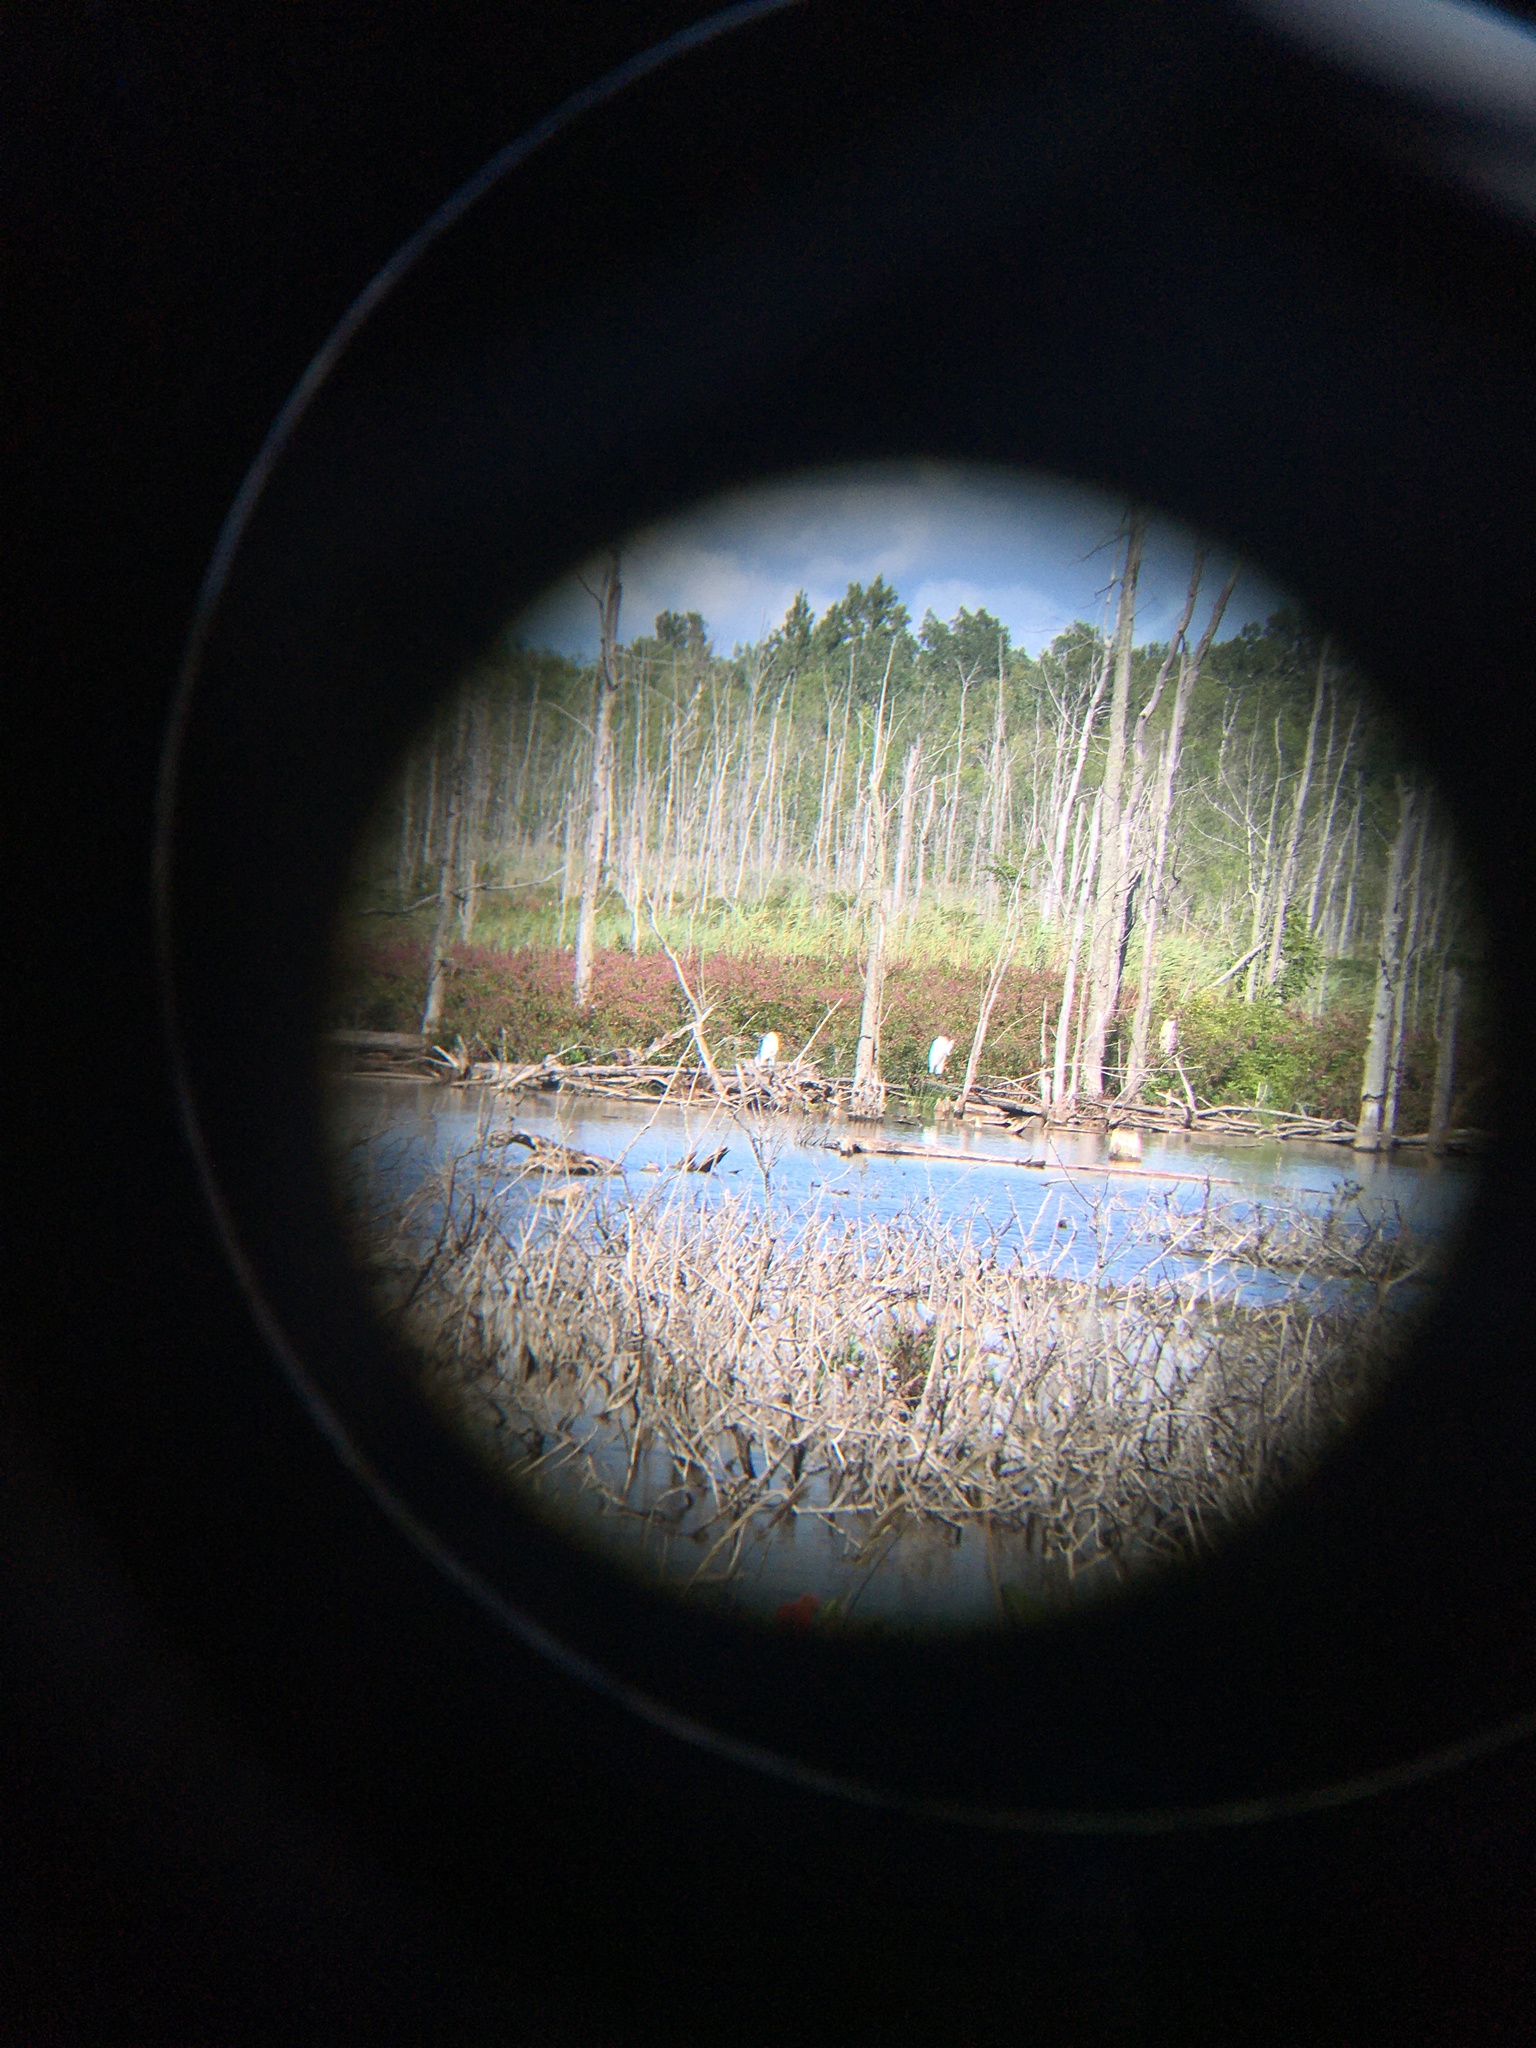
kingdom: Animalia
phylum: Chordata
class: Aves
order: Pelecaniformes
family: Ardeidae
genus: Ardea
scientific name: Ardea alba
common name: Great egret
